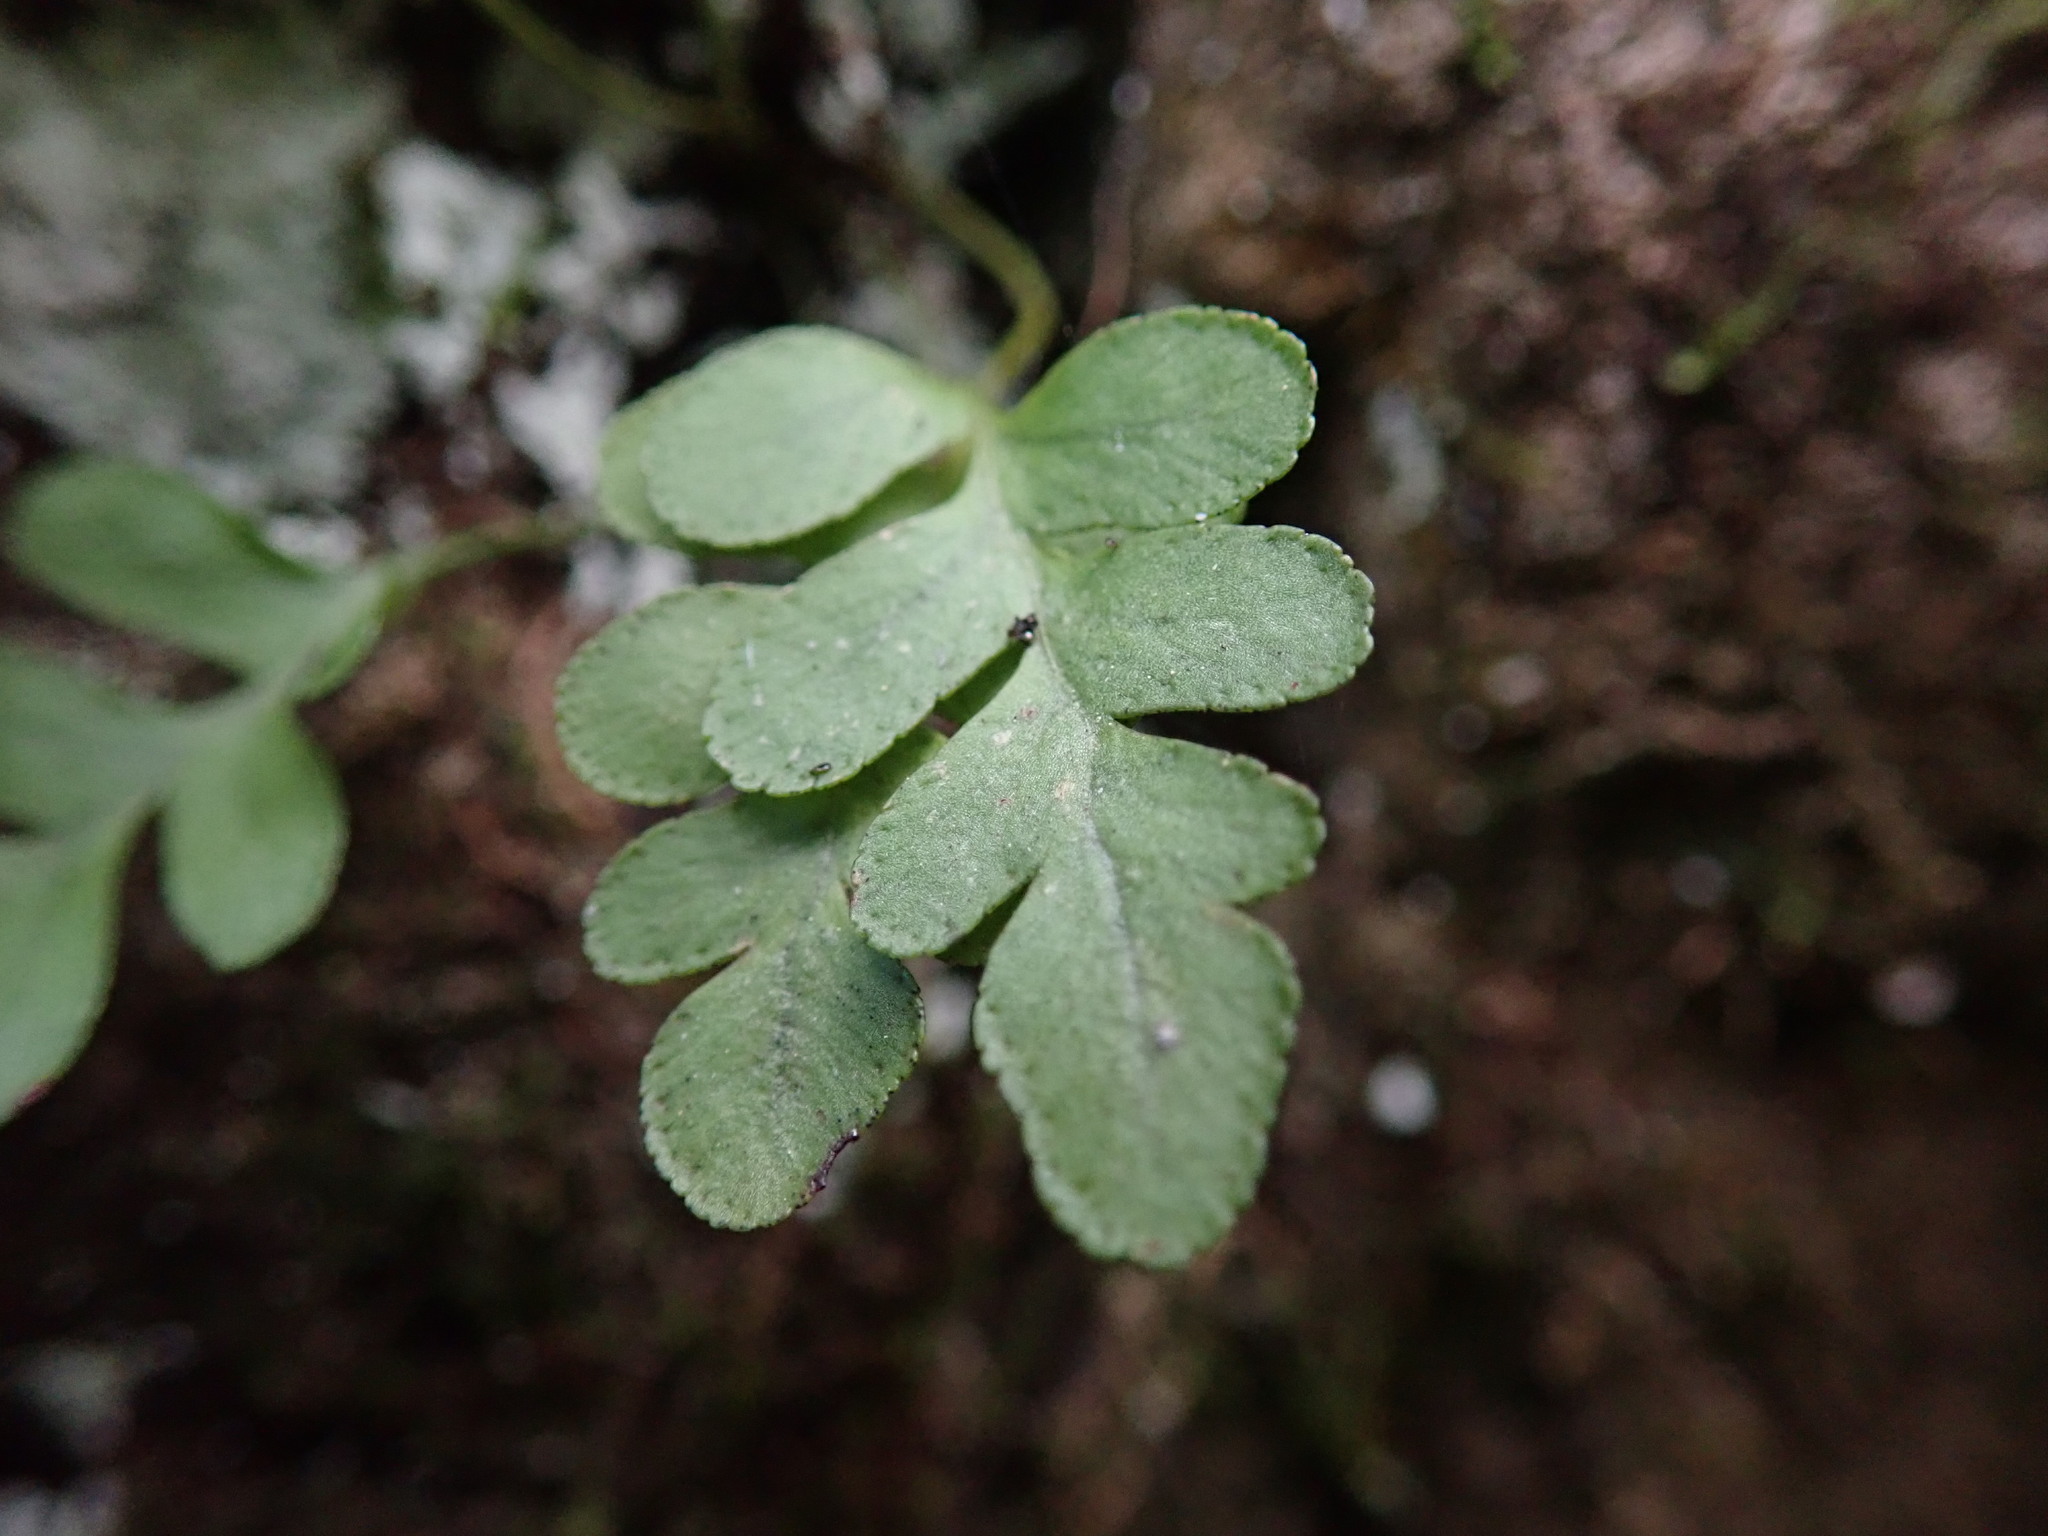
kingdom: Plantae
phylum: Tracheophyta
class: Polypodiopsida
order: Polypodiales
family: Polypodiaceae
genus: Polypodium
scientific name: Polypodium amorphum
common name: Pacific polypody
